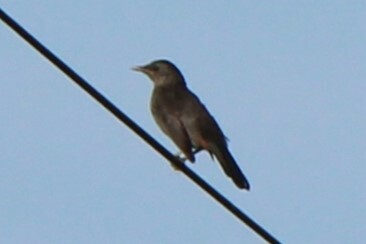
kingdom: Animalia
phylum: Chordata
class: Aves
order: Passeriformes
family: Mimidae
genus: Dumetella
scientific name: Dumetella carolinensis
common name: Gray catbird
